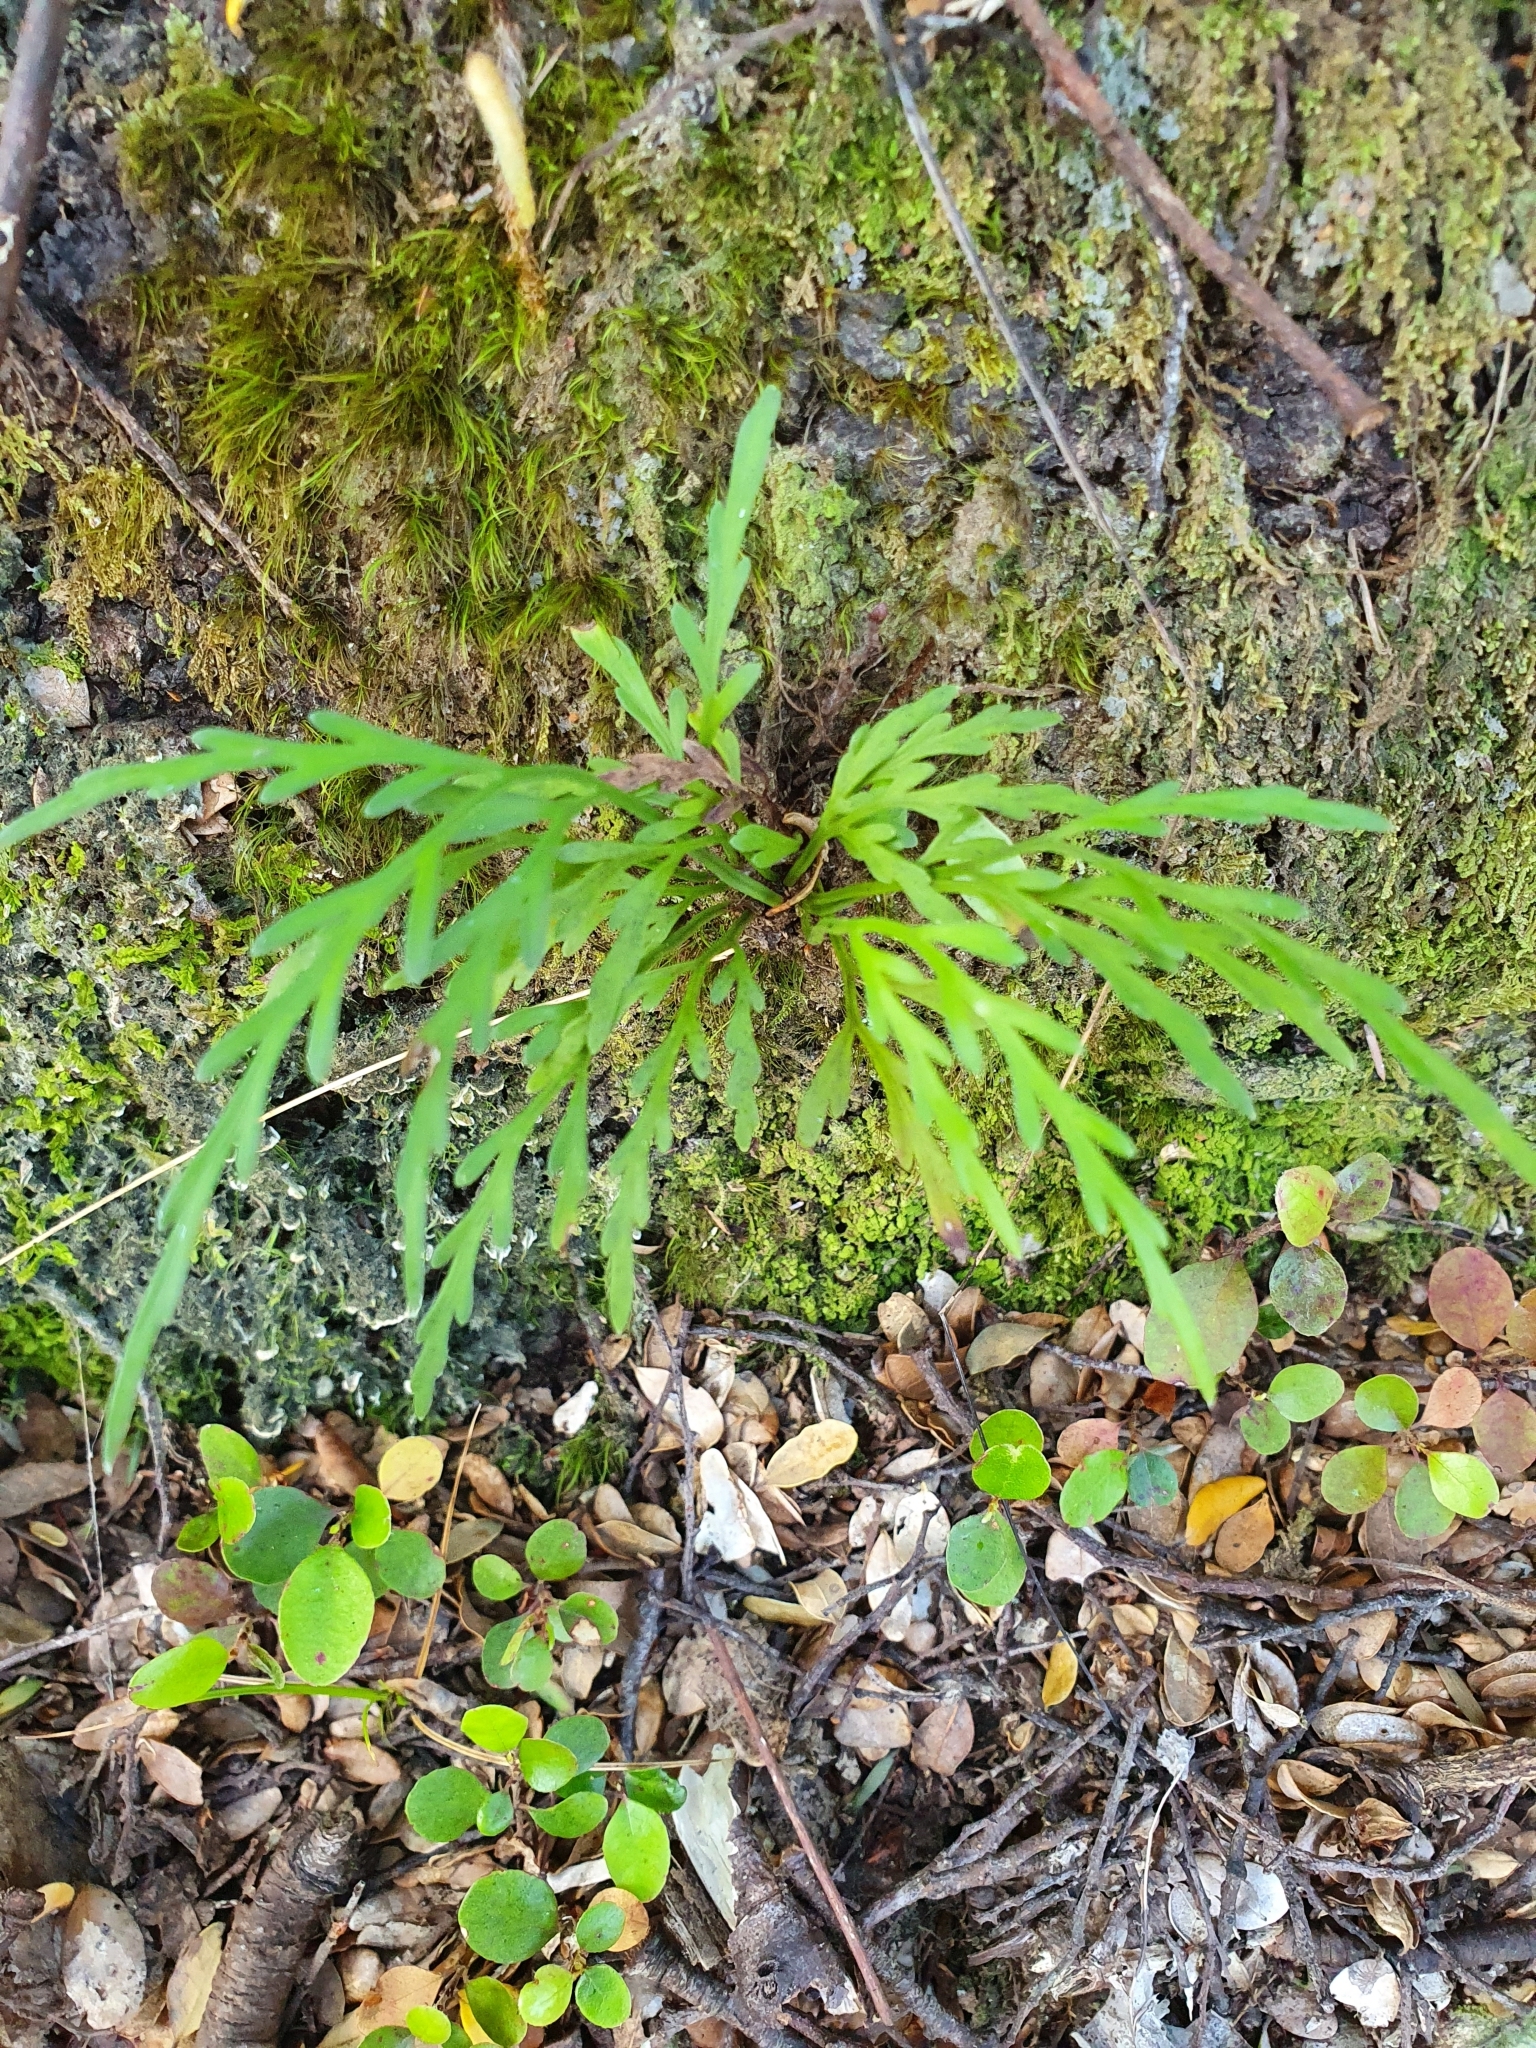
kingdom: Plantae
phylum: Tracheophyta
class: Polypodiopsida
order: Polypodiales
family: Aspleniaceae
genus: Asplenium
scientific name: Asplenium flaccidum
